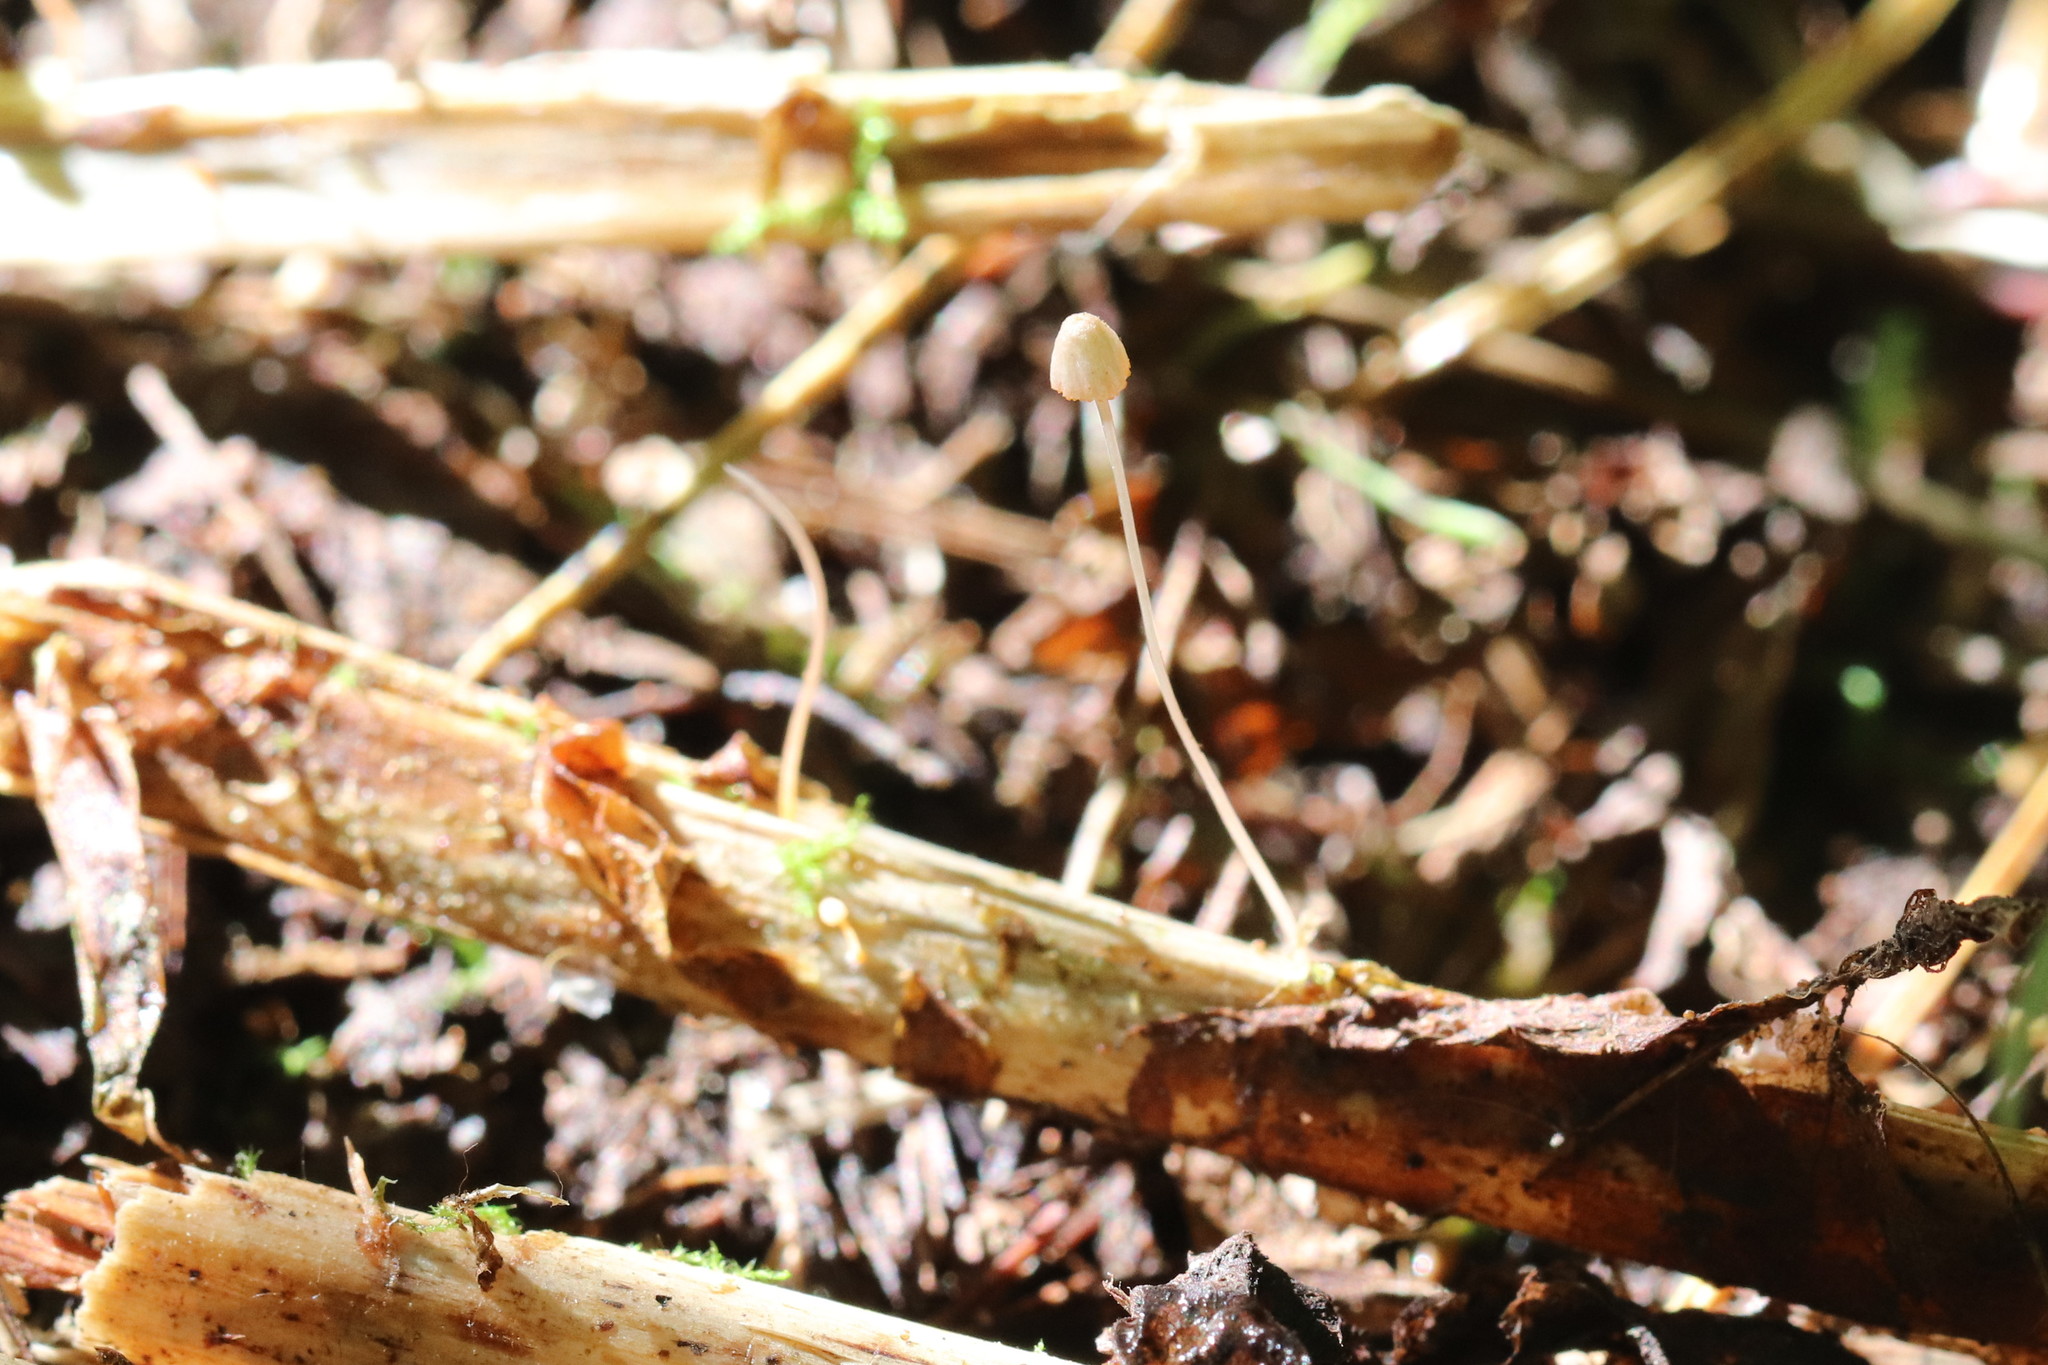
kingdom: Fungi
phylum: Basidiomycota
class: Agaricomycetes
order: Agaricales
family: Mycenaceae
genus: Mycena
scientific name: Mycena pterigena
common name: Ferny bonnet
